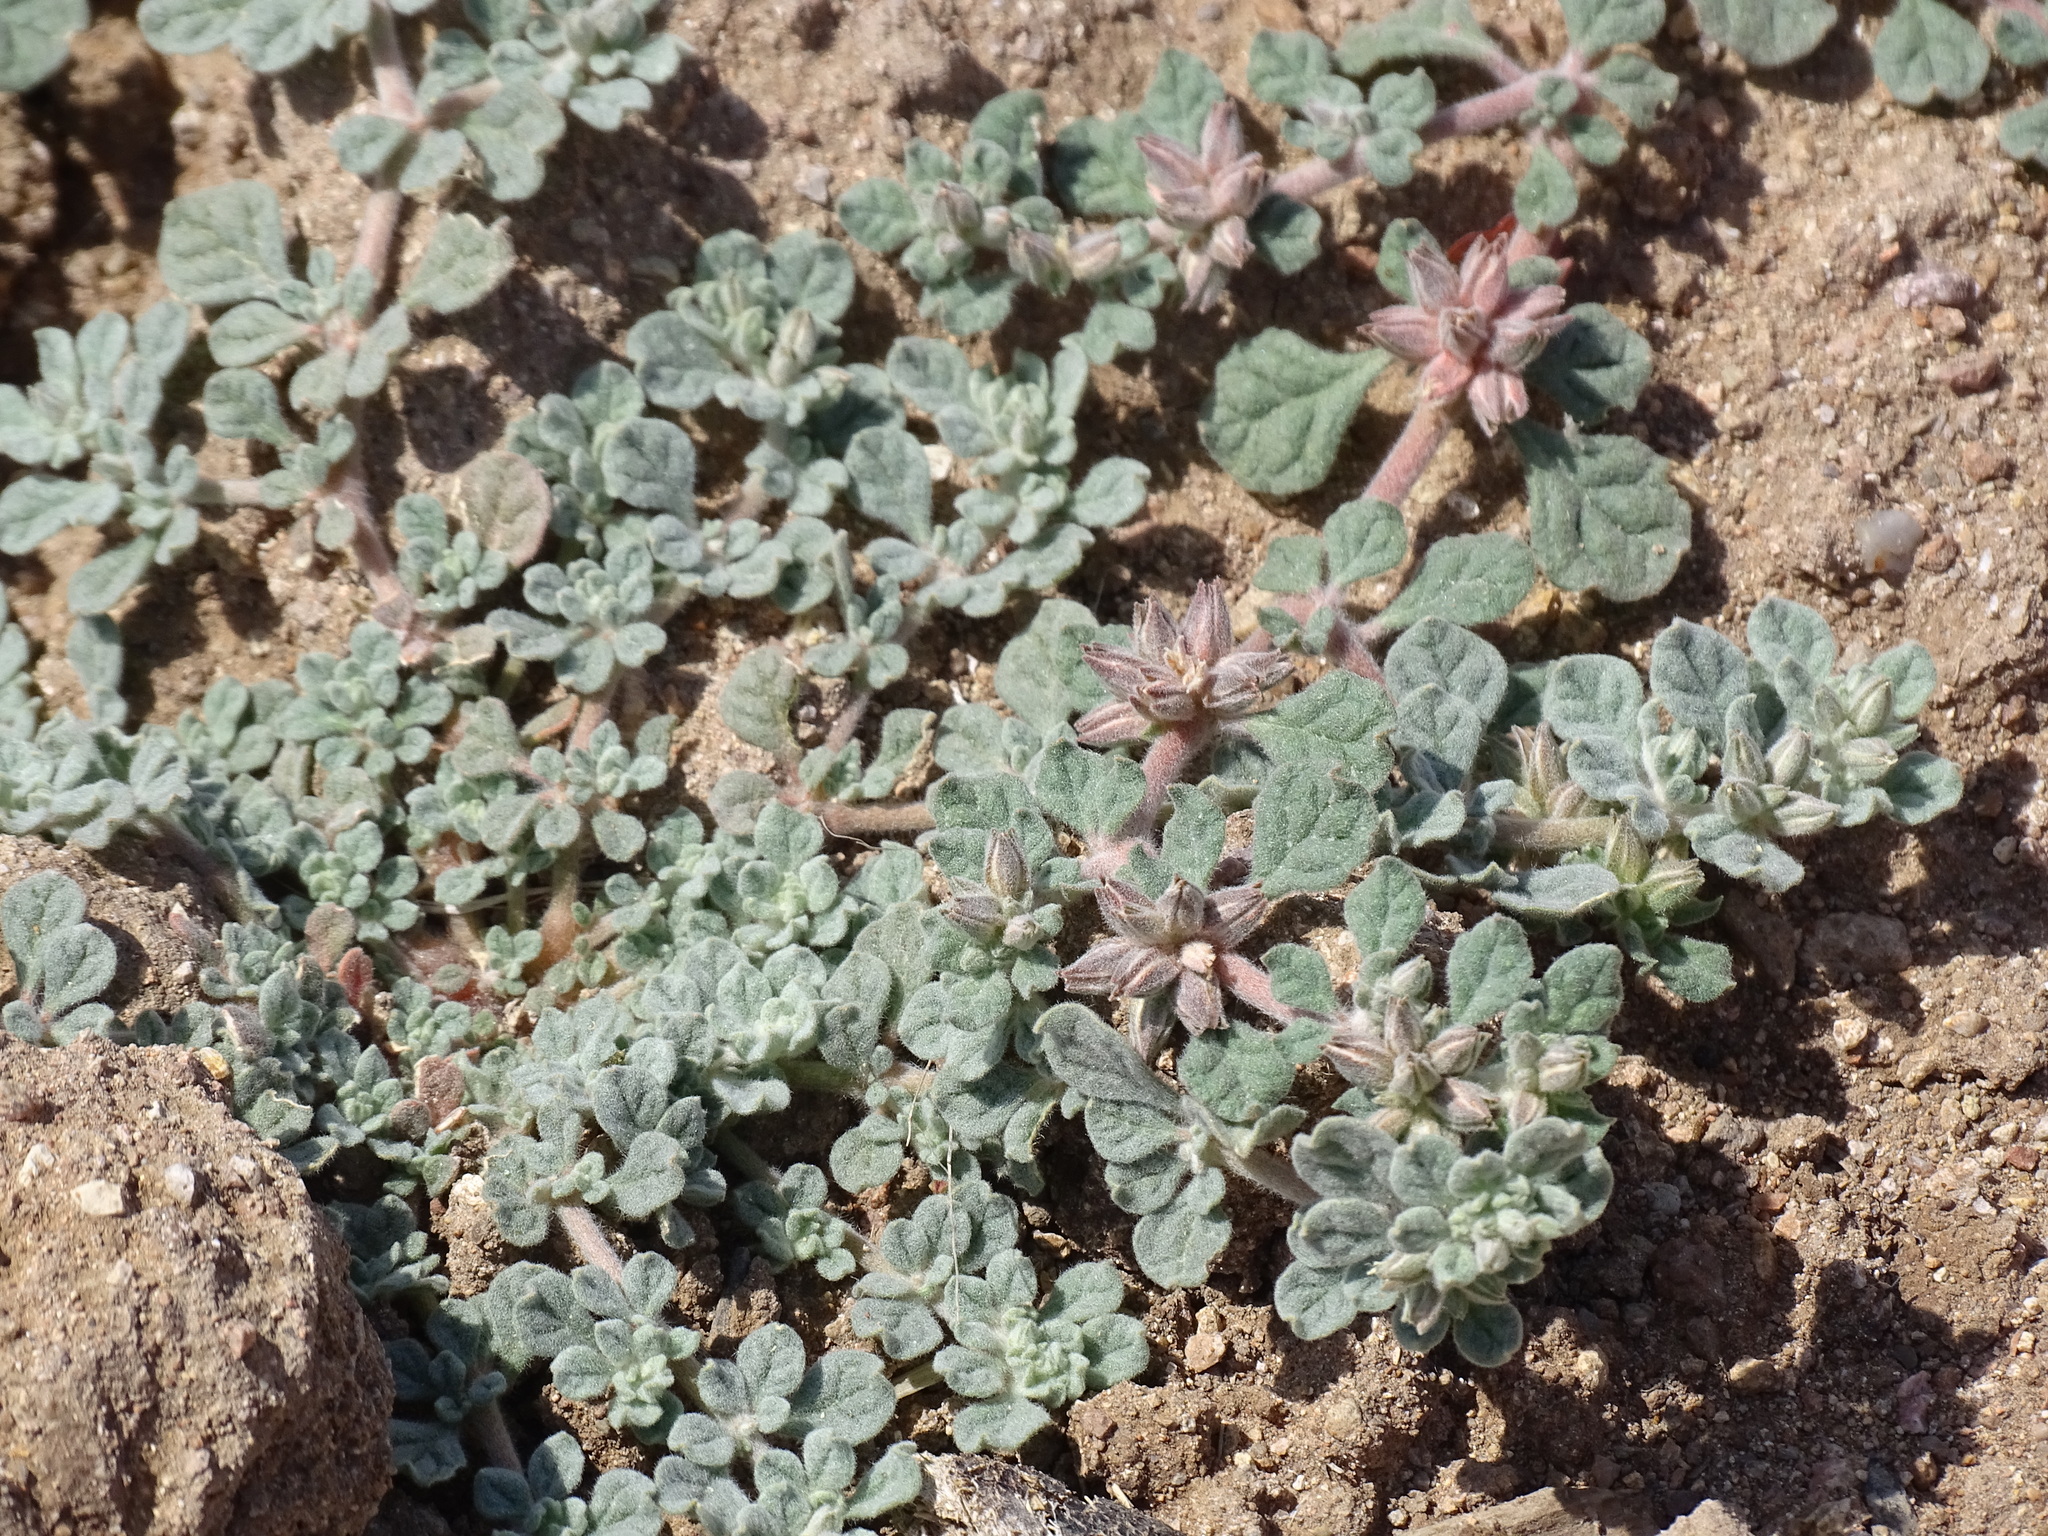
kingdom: Plantae
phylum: Tracheophyta
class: Magnoliopsida
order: Caryophyllales
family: Molluginaceae
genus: Glinus
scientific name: Glinus radiatus
